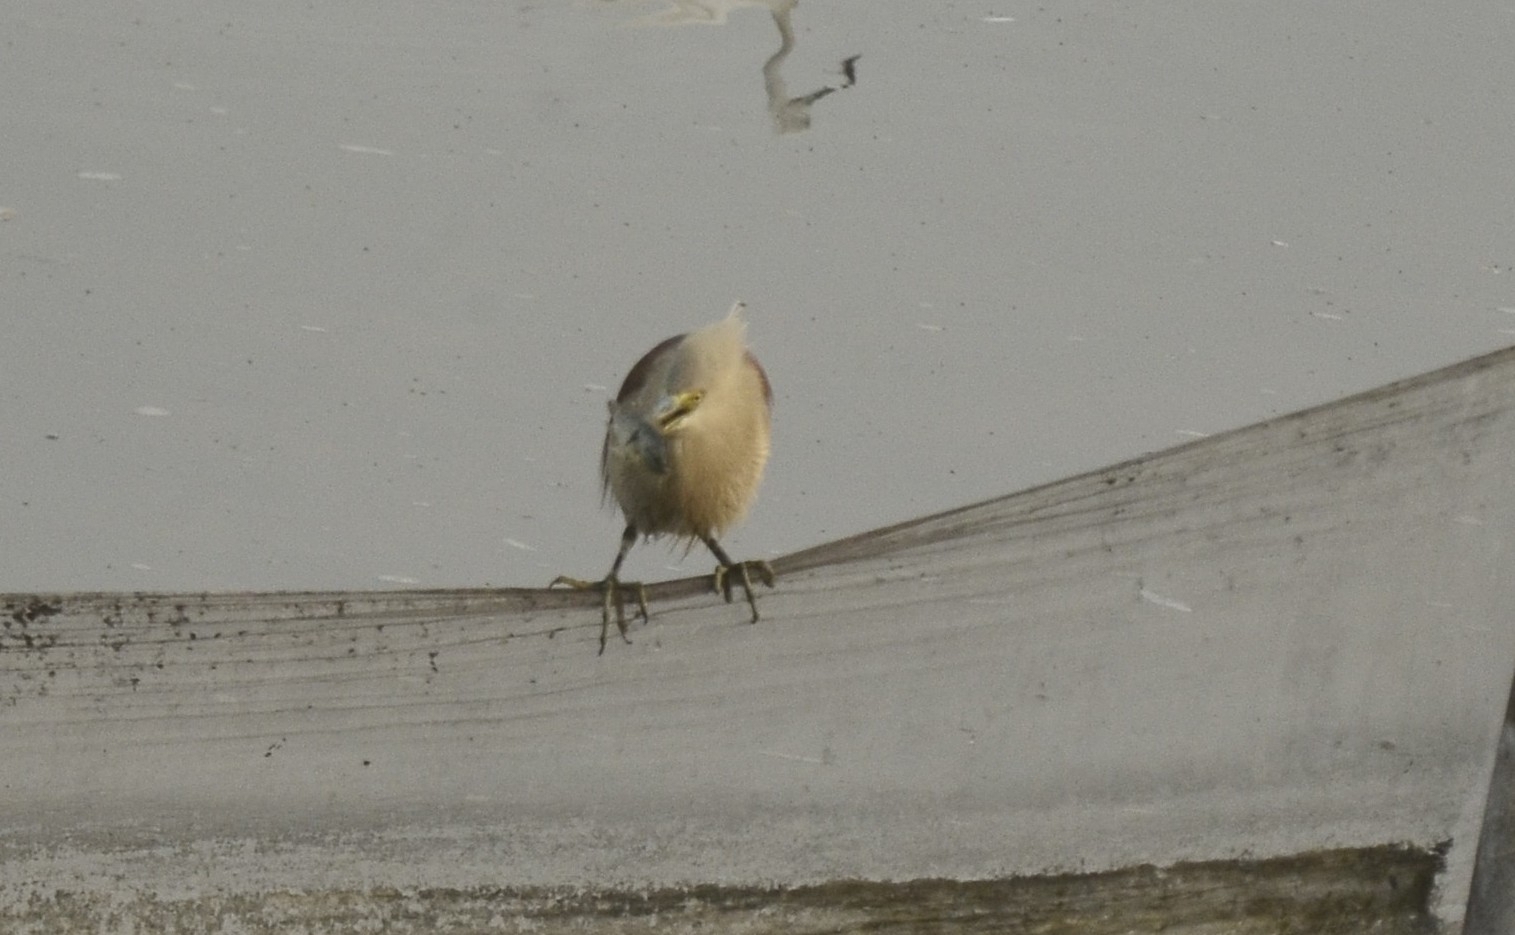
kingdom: Animalia
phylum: Chordata
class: Aves
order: Pelecaniformes
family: Ardeidae
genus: Ardeola
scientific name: Ardeola grayii
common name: Indian pond heron
